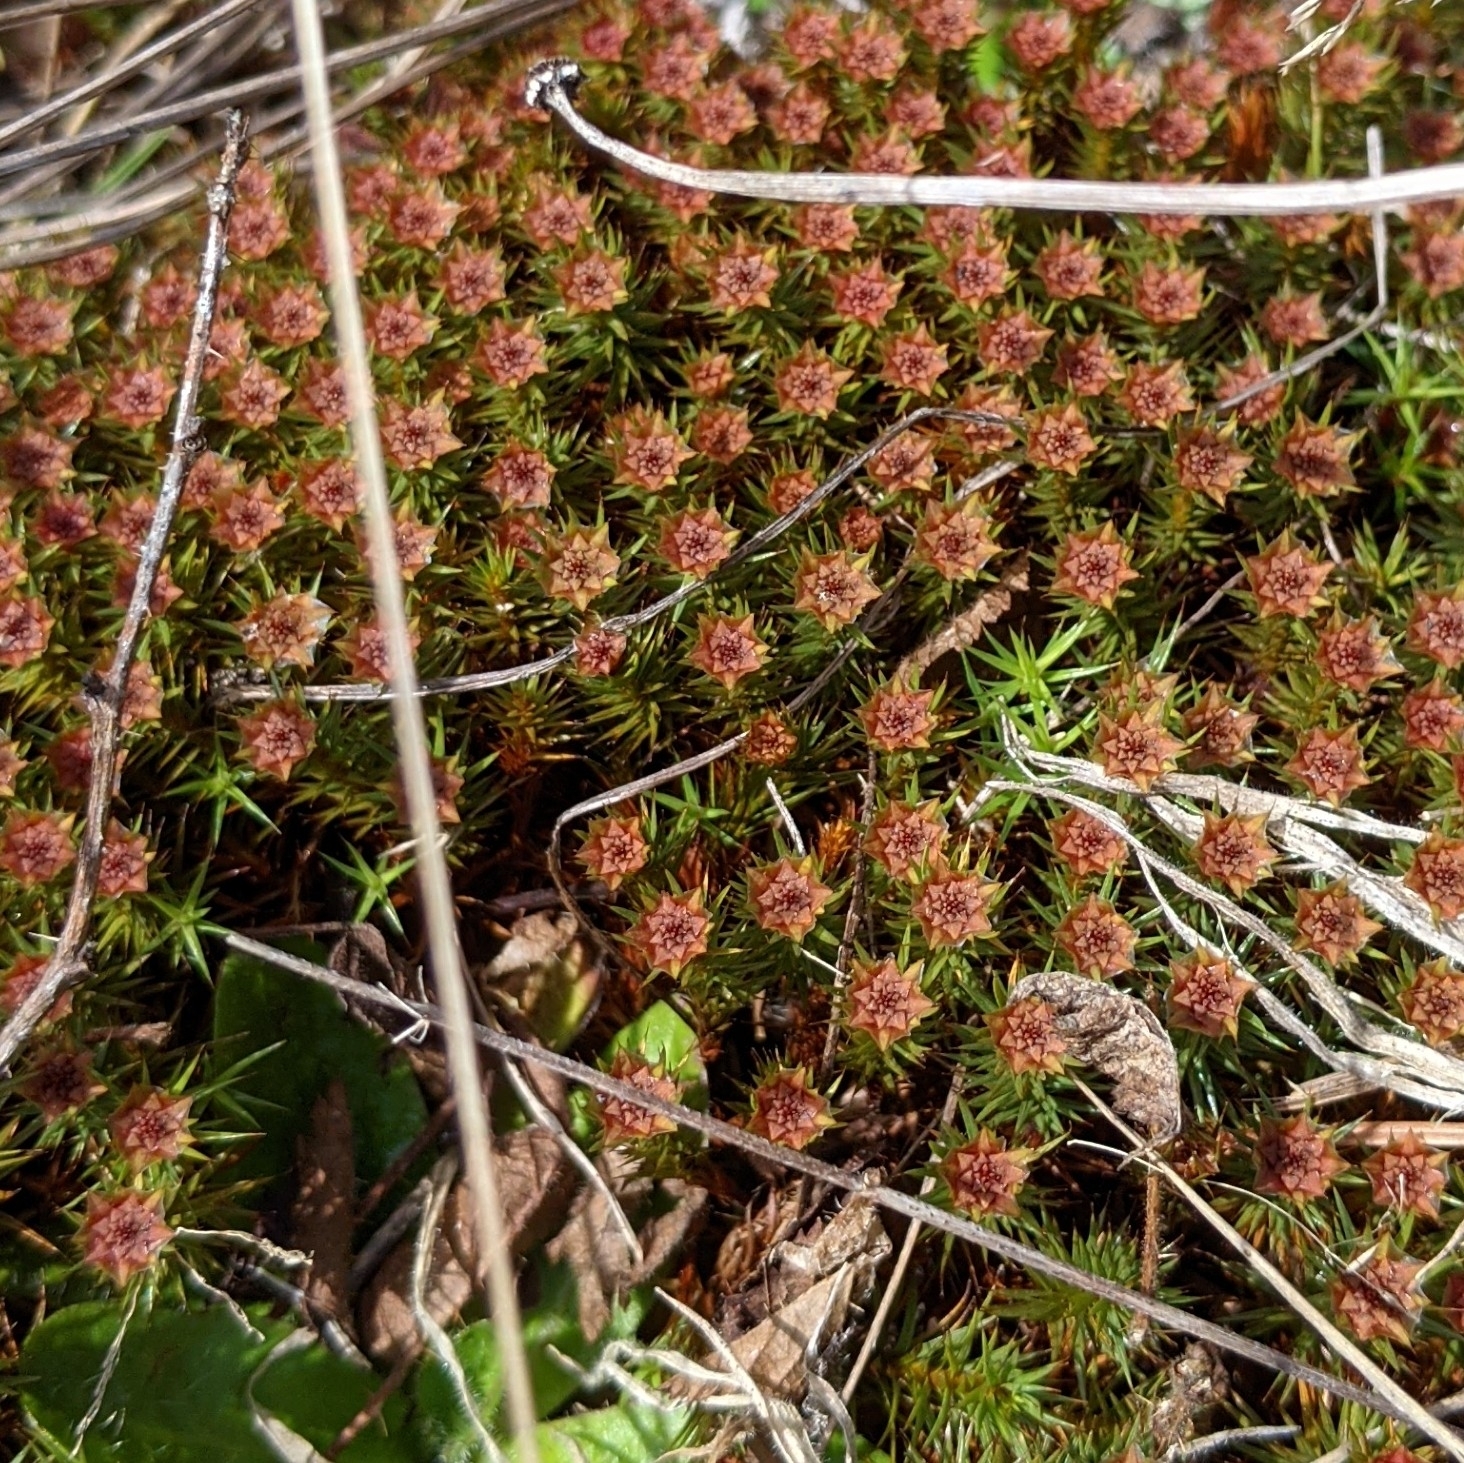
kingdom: Plantae
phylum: Bryophyta
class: Polytrichopsida
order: Polytrichales
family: Polytrichaceae
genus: Polytrichum
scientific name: Polytrichum juniperinum
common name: Juniper haircap moss
